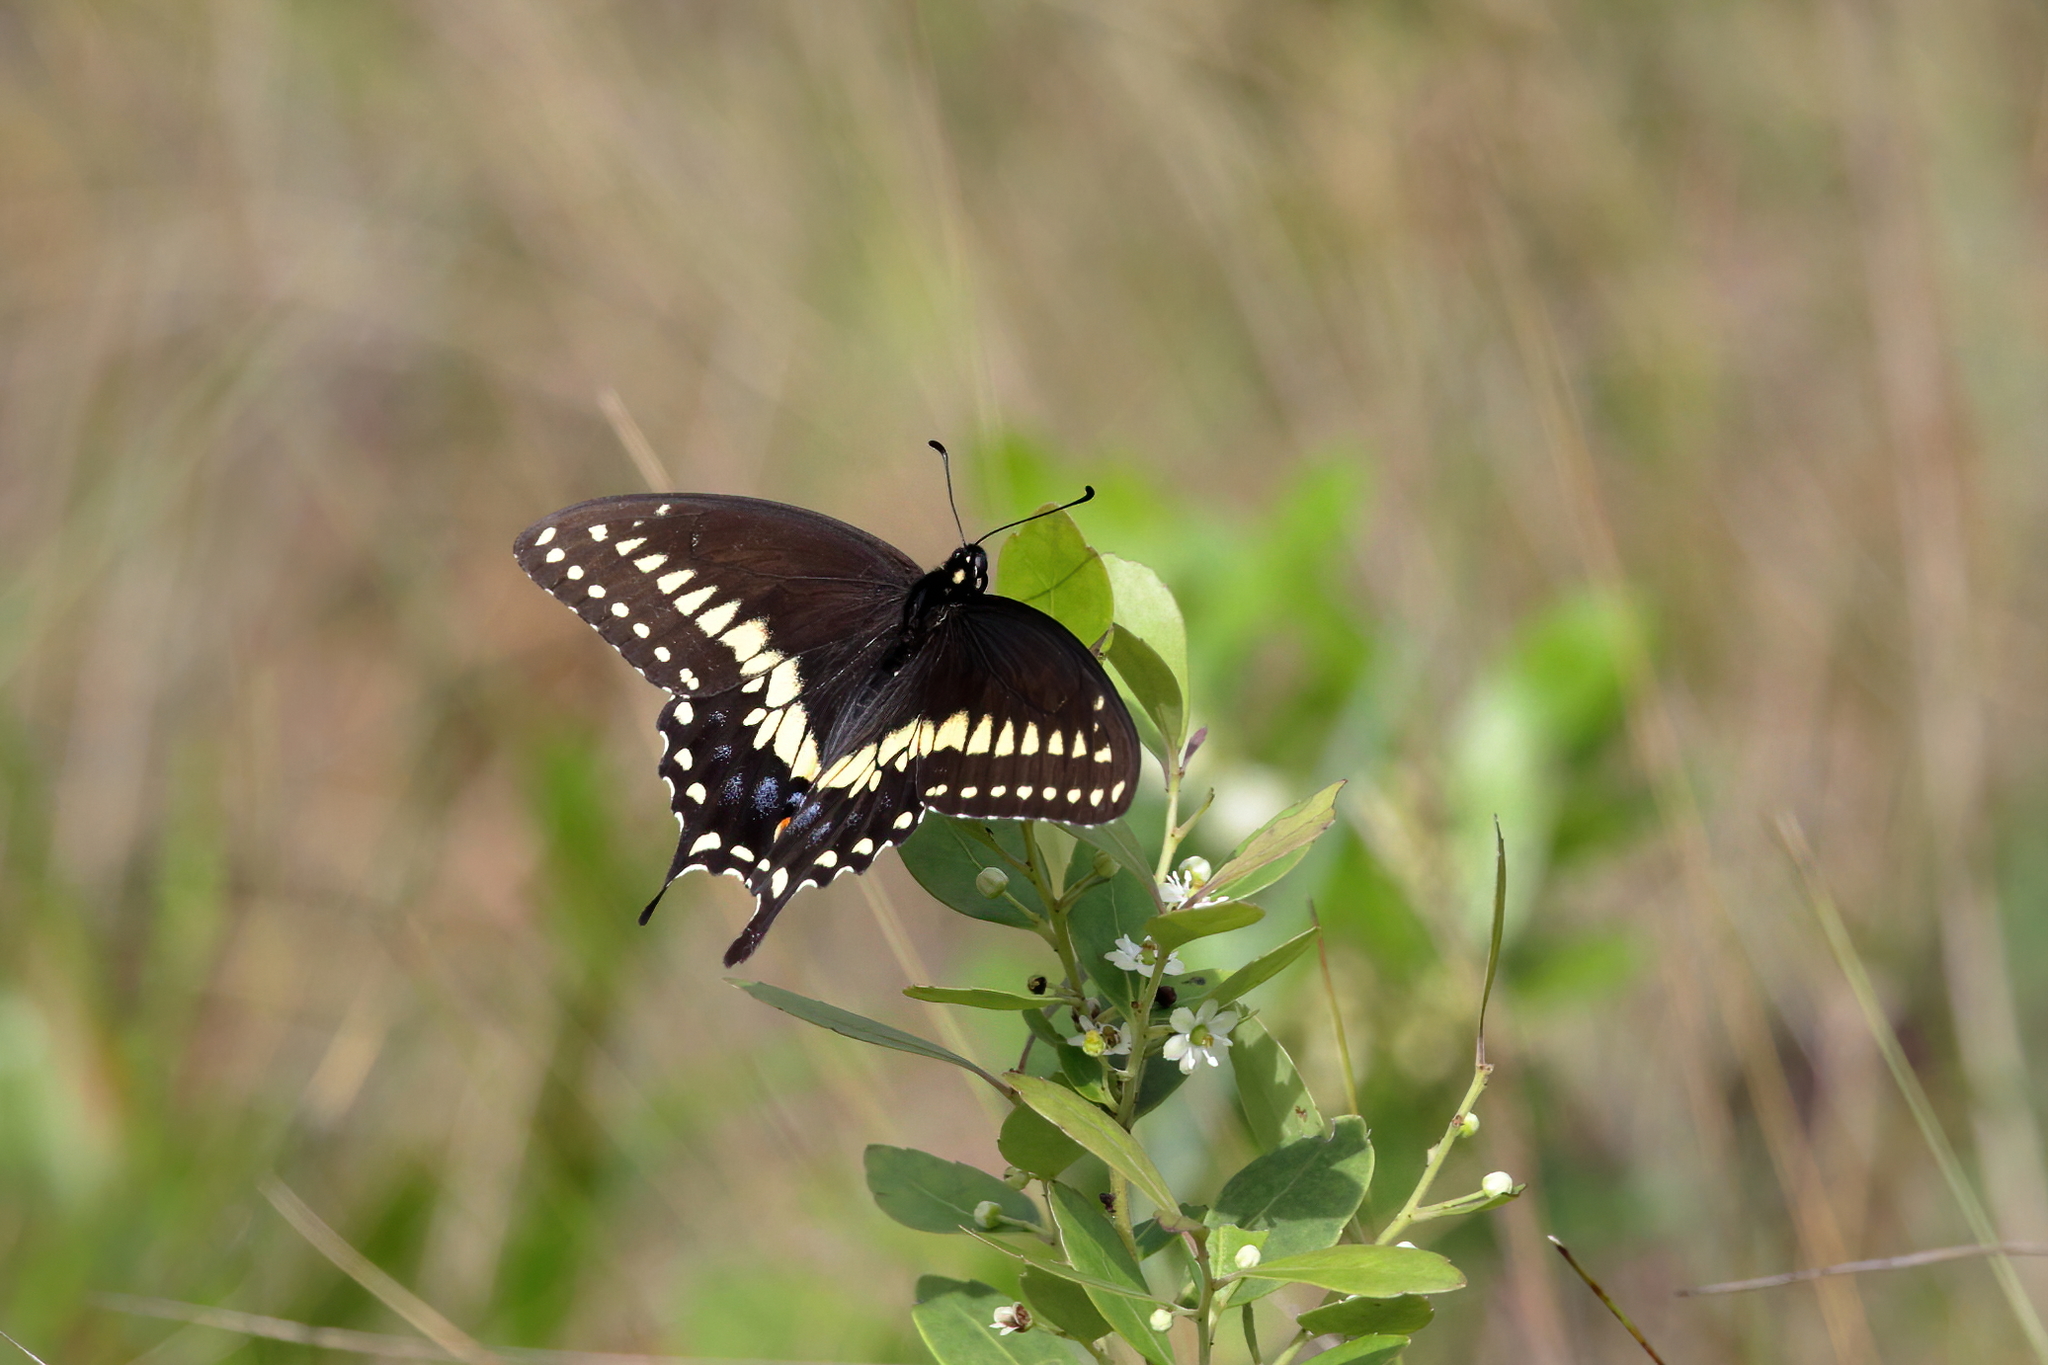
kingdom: Animalia
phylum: Arthropoda
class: Insecta
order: Lepidoptera
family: Papilionidae
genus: Papilio
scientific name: Papilio polyxenes
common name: Black swallowtail
